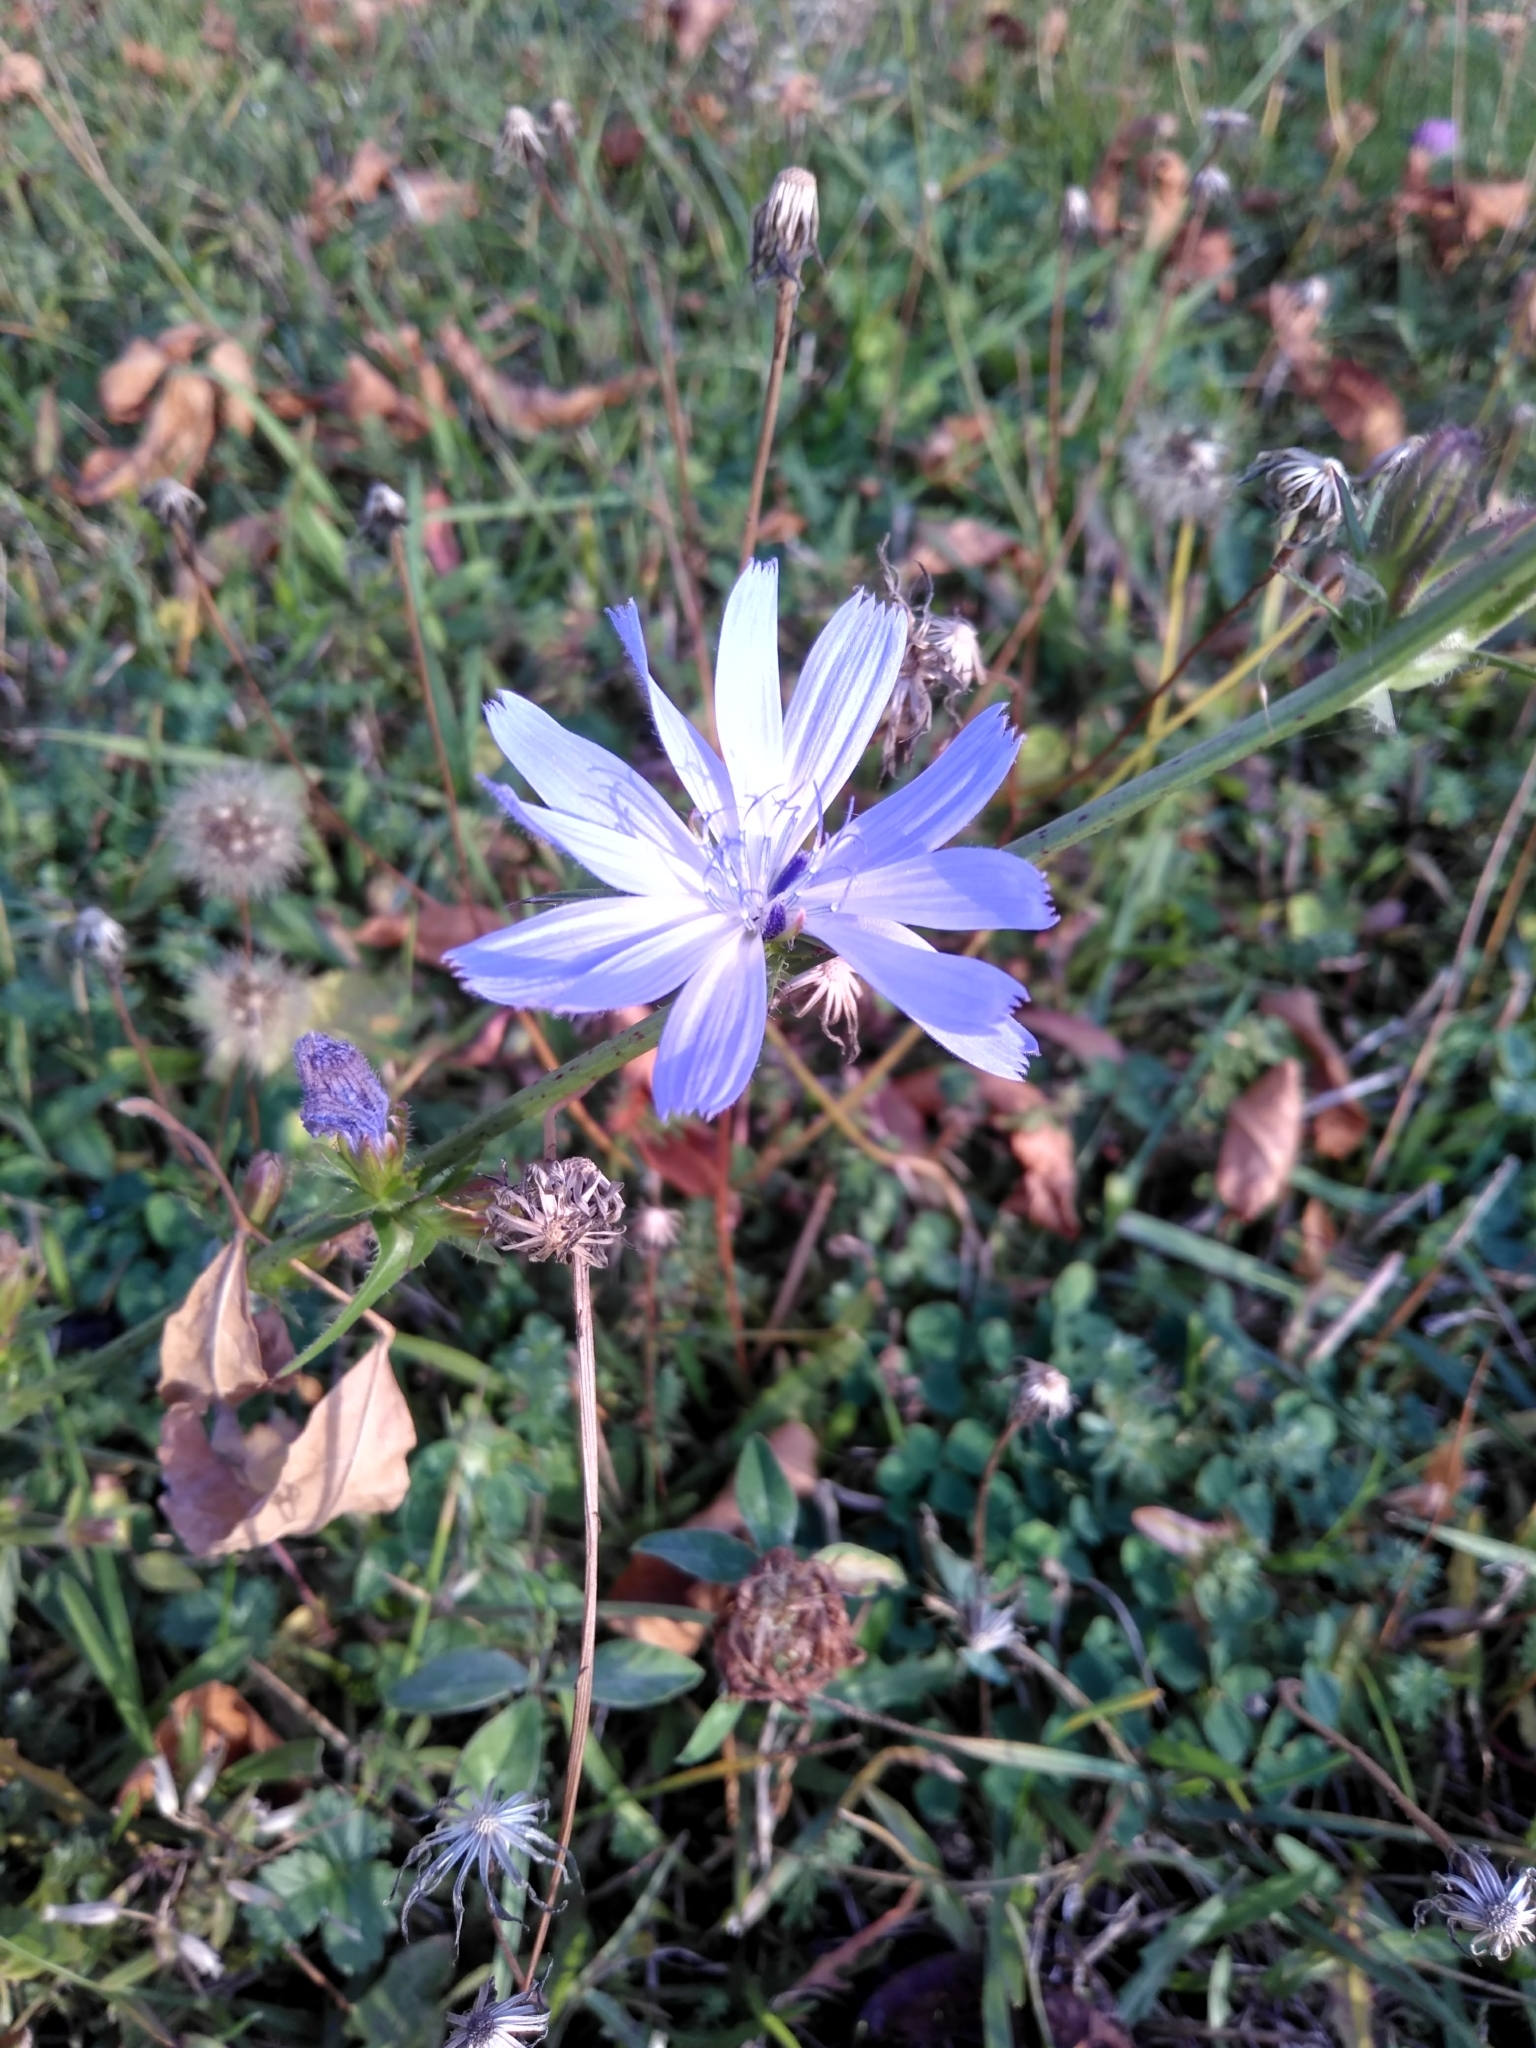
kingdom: Plantae
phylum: Tracheophyta
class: Magnoliopsida
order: Asterales
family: Asteraceae
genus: Cichorium
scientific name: Cichorium intybus
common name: Chicory
